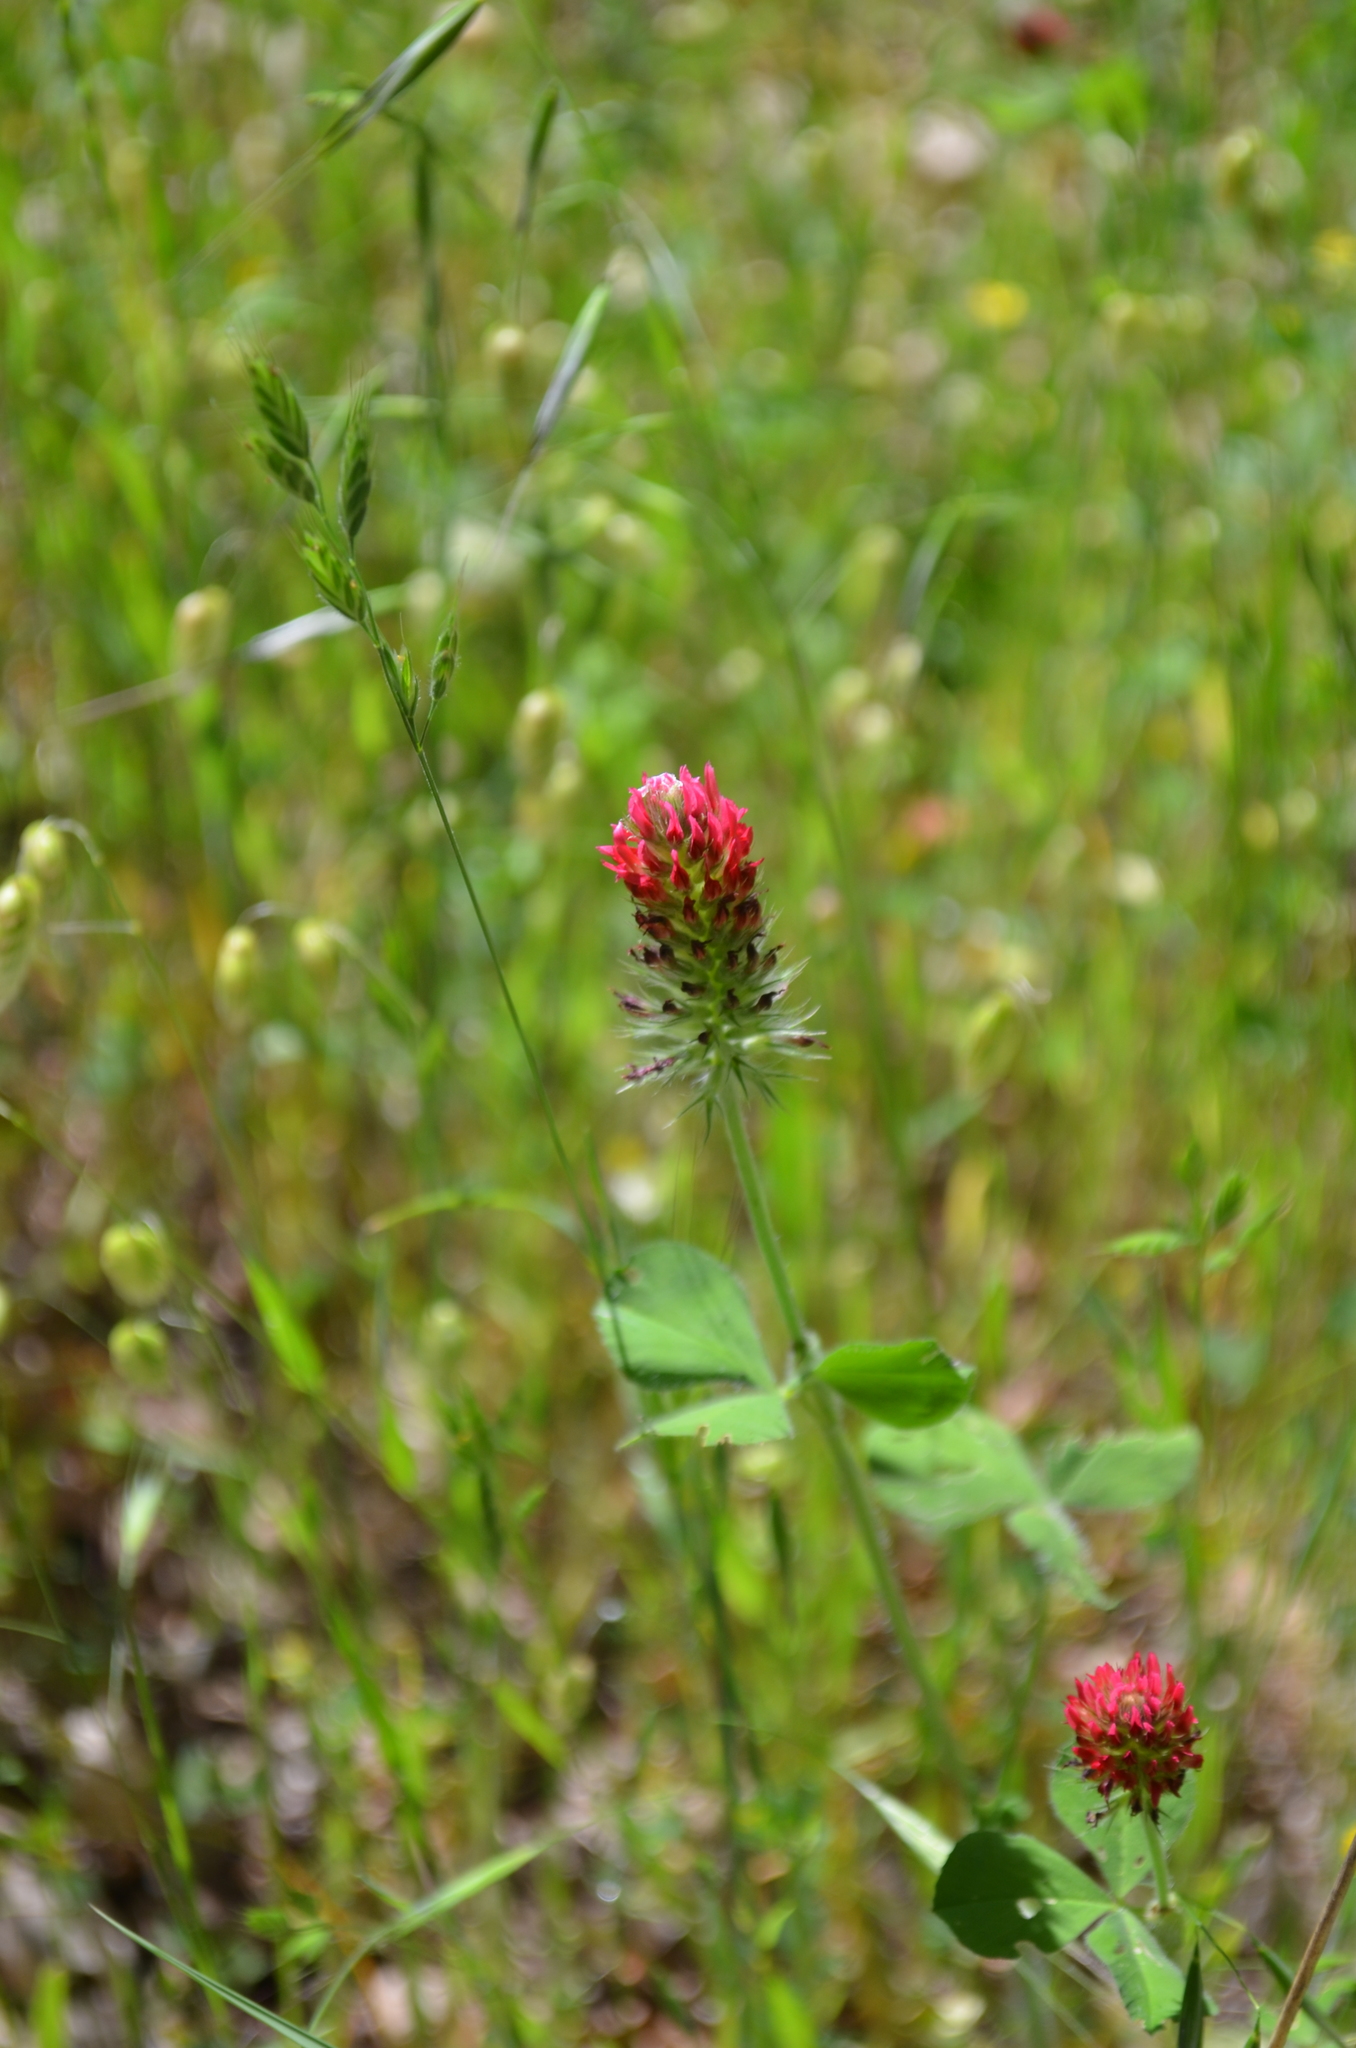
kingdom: Plantae
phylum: Tracheophyta
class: Magnoliopsida
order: Fabales
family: Fabaceae
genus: Trifolium
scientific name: Trifolium incarnatum
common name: Crimson clover
